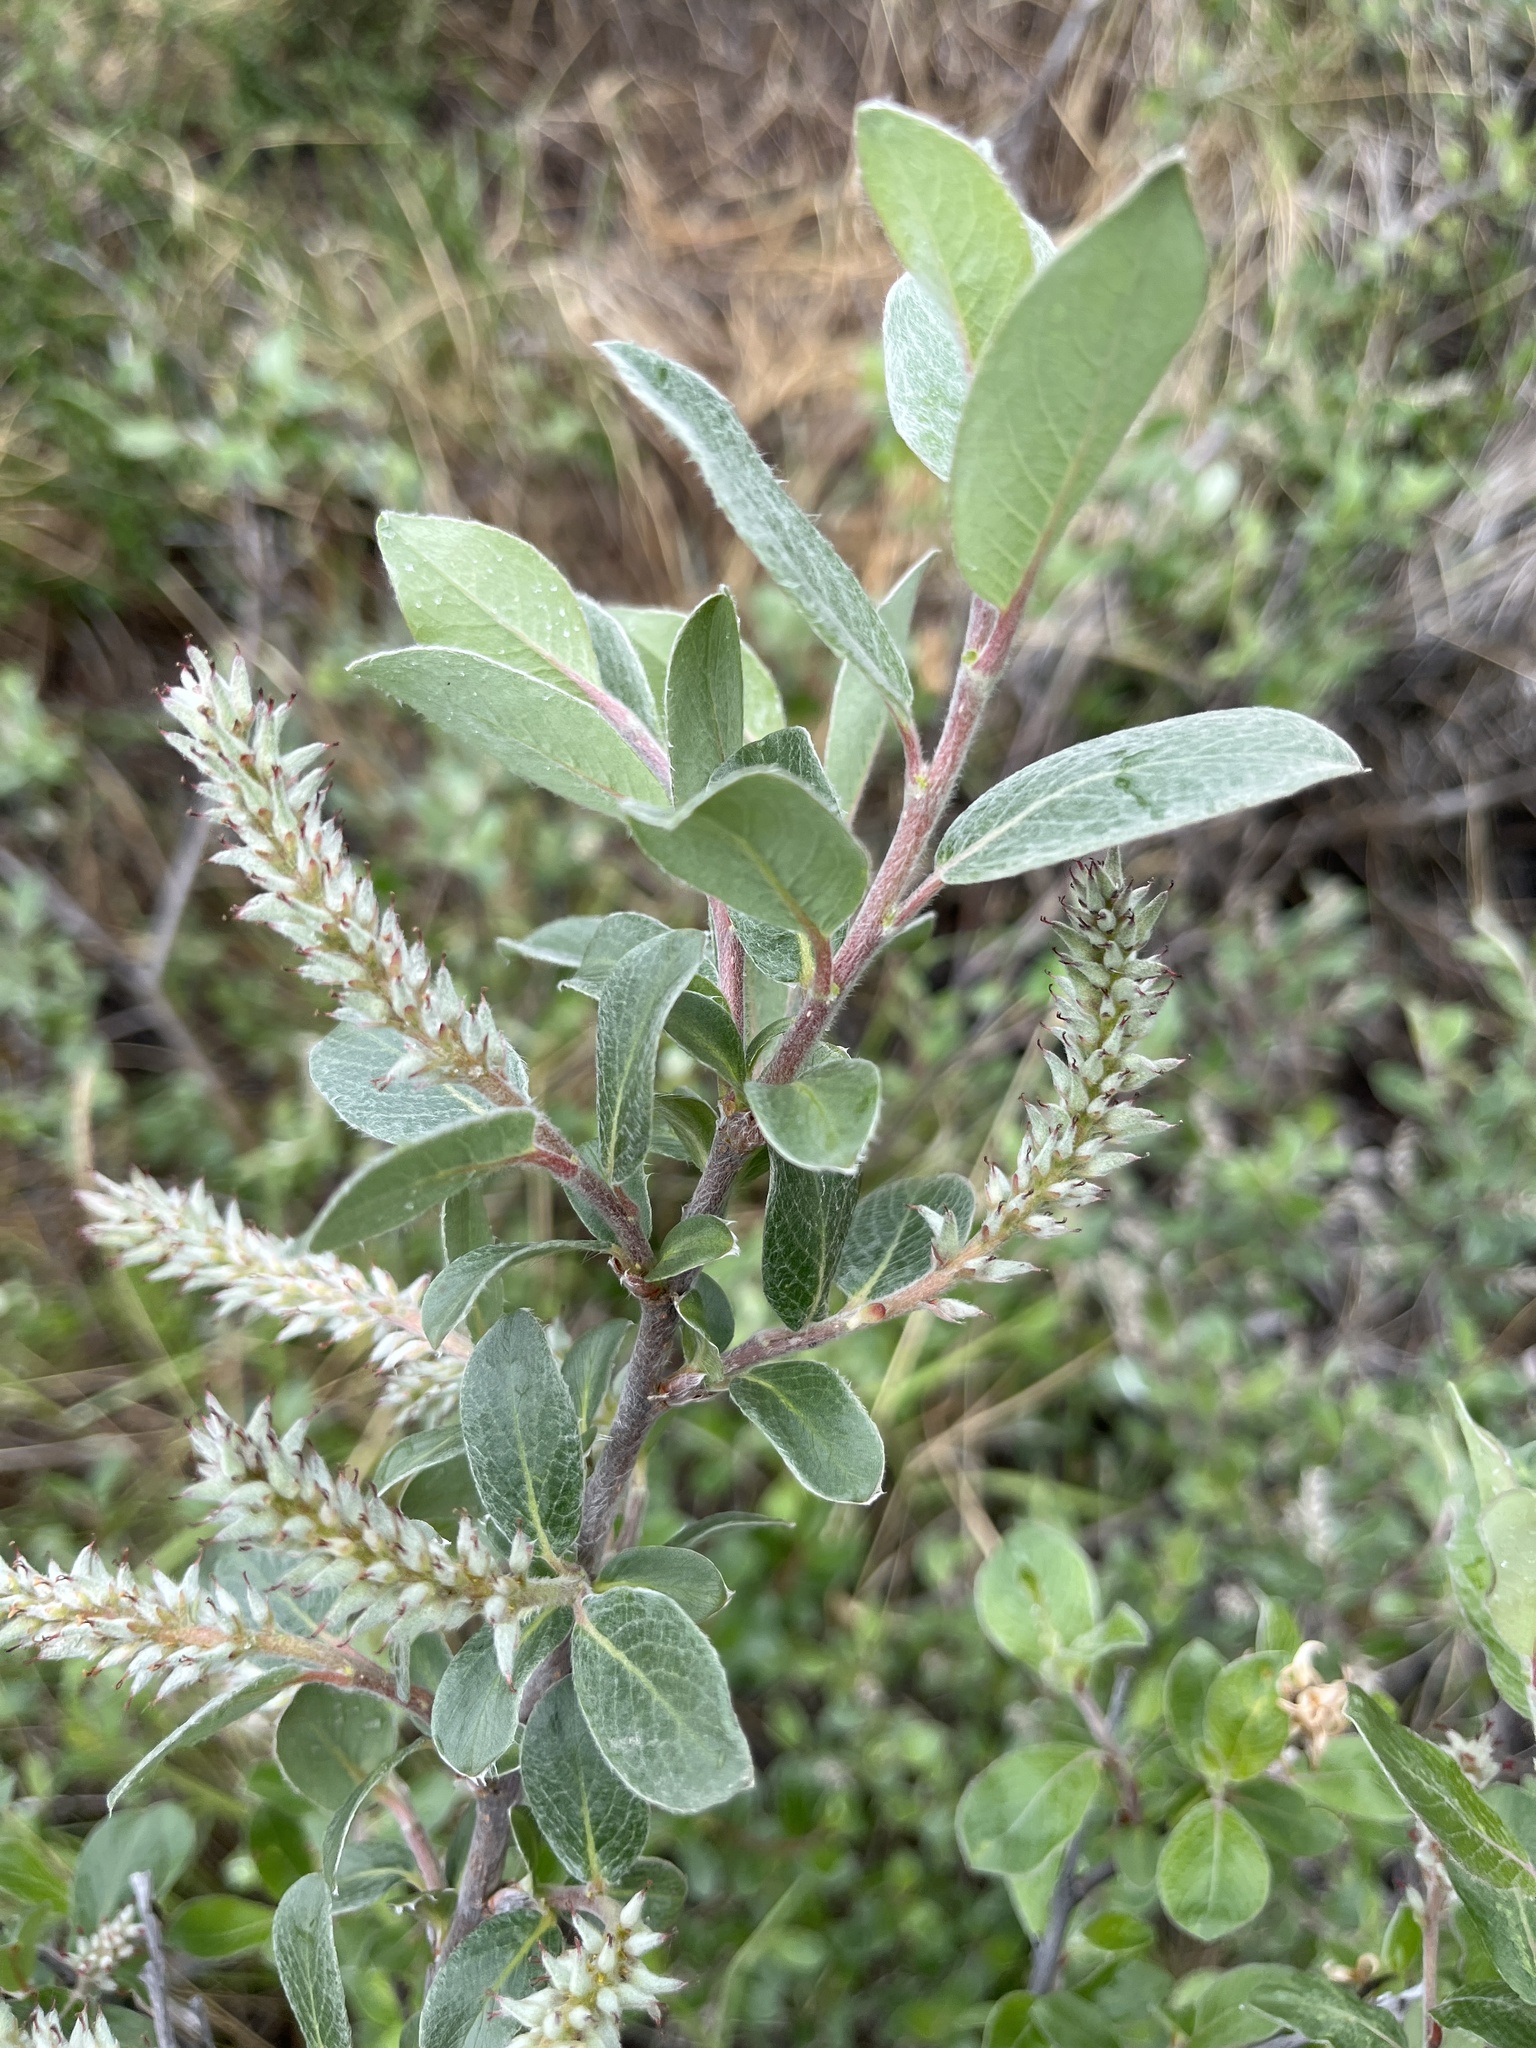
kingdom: Plantae
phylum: Tracheophyta
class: Magnoliopsida
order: Malpighiales
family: Salicaceae
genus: Salix
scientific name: Salix glauca
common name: Glaucous willow
